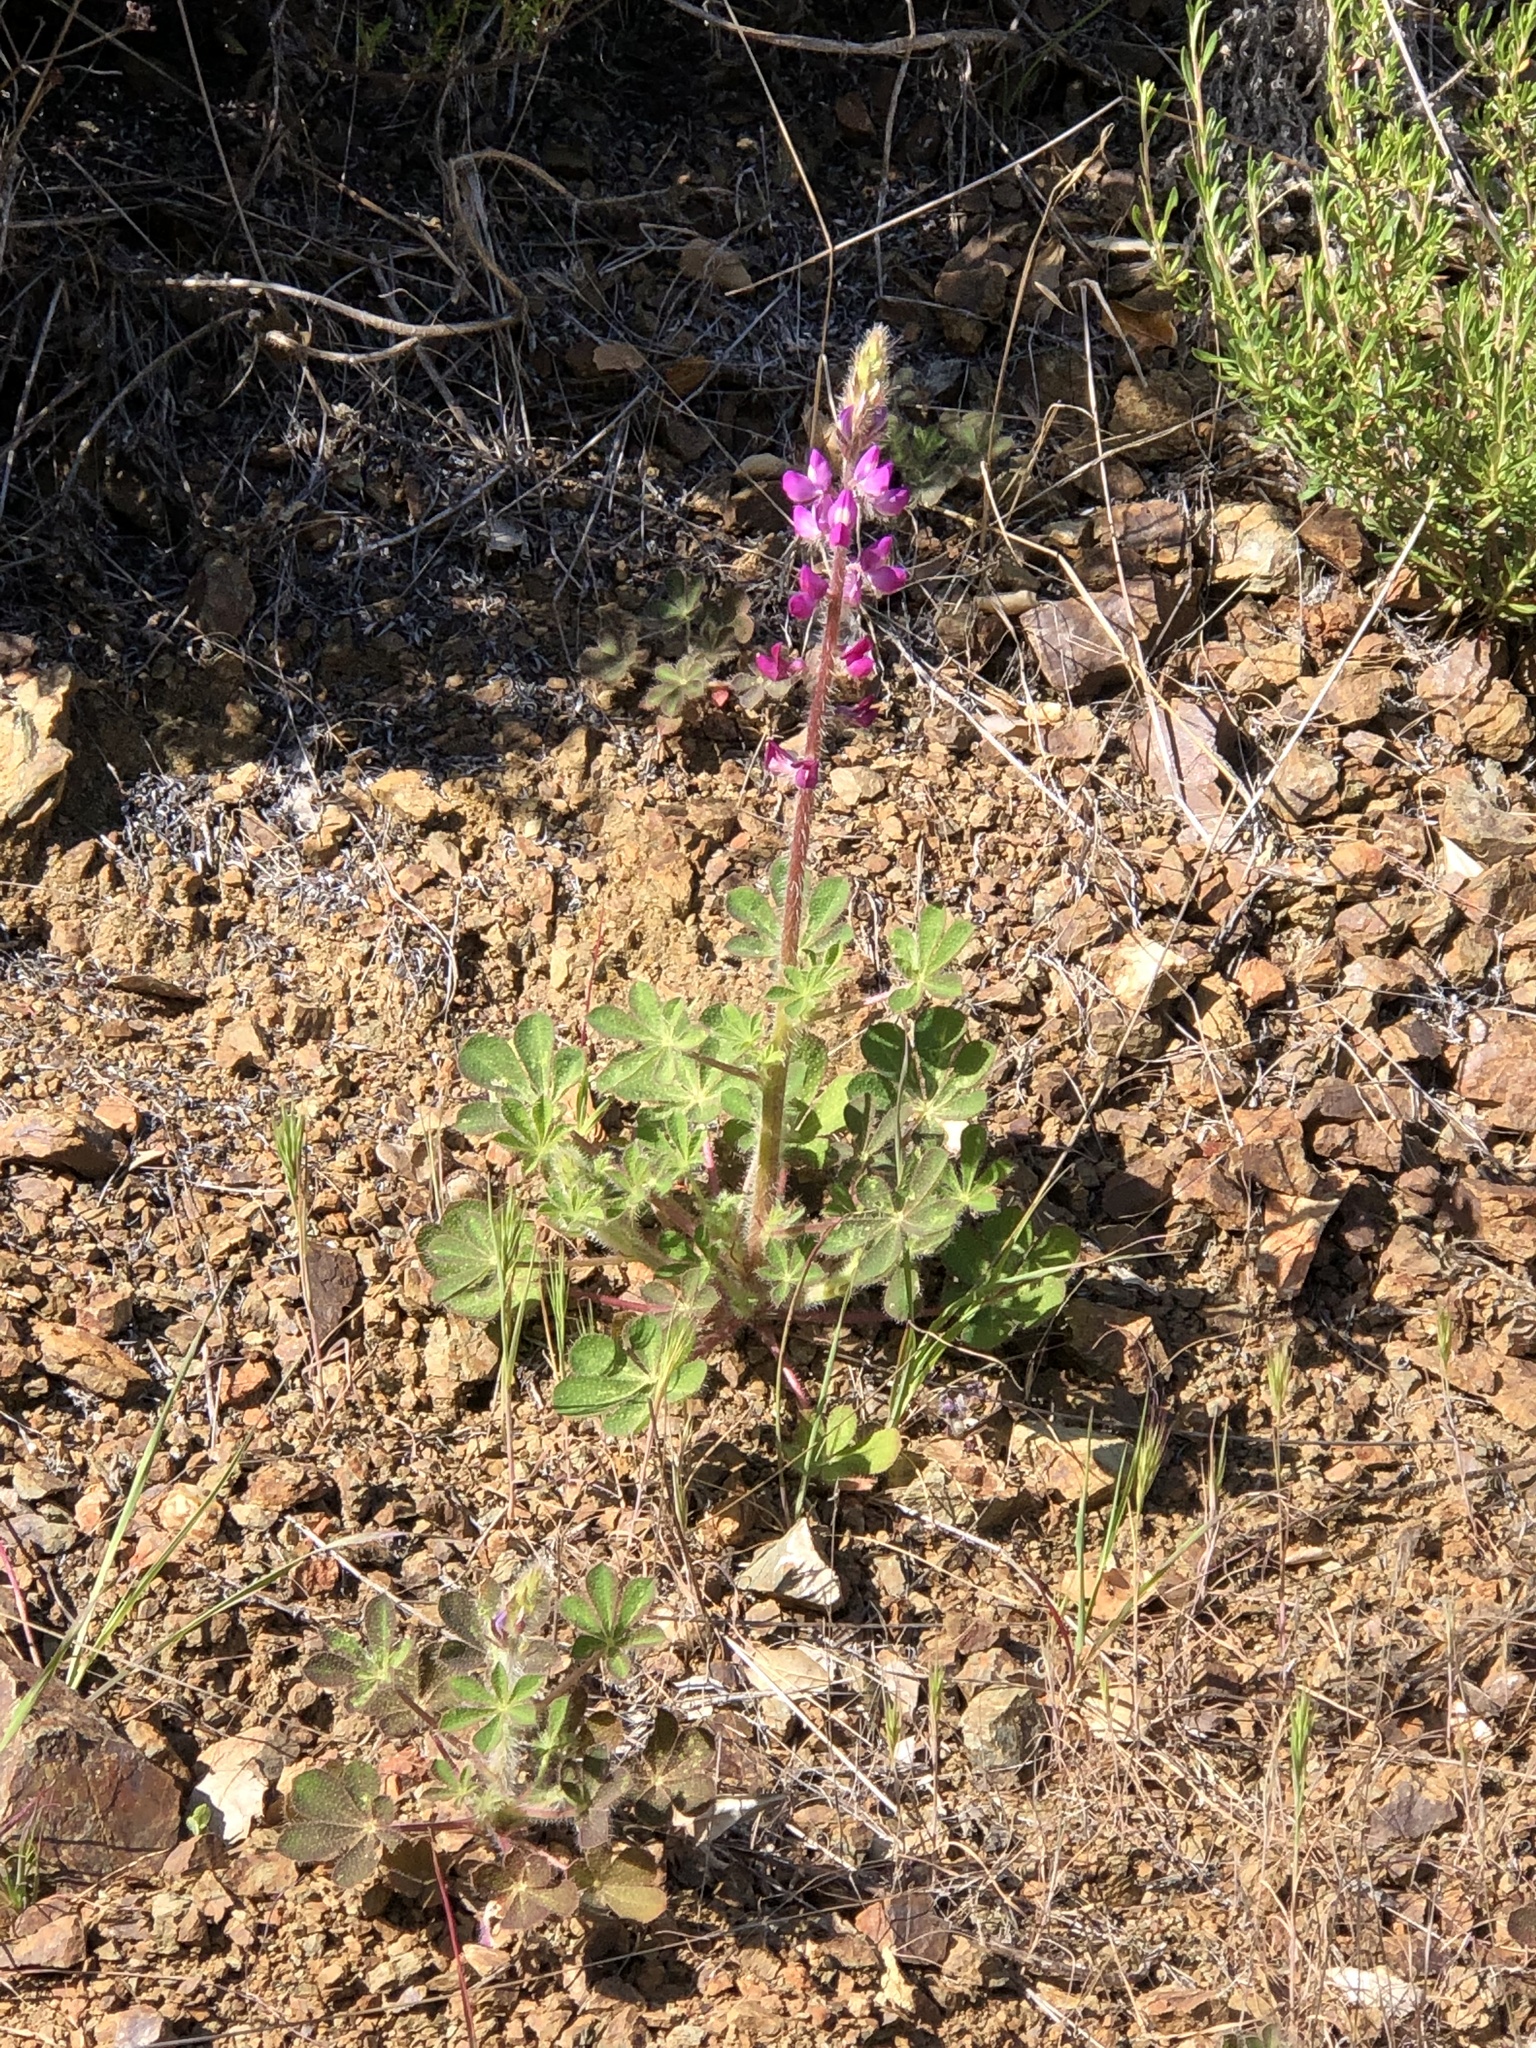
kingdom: Plantae
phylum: Tracheophyta
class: Magnoliopsida
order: Fabales
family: Fabaceae
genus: Lupinus
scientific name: Lupinus hirsutissimus
